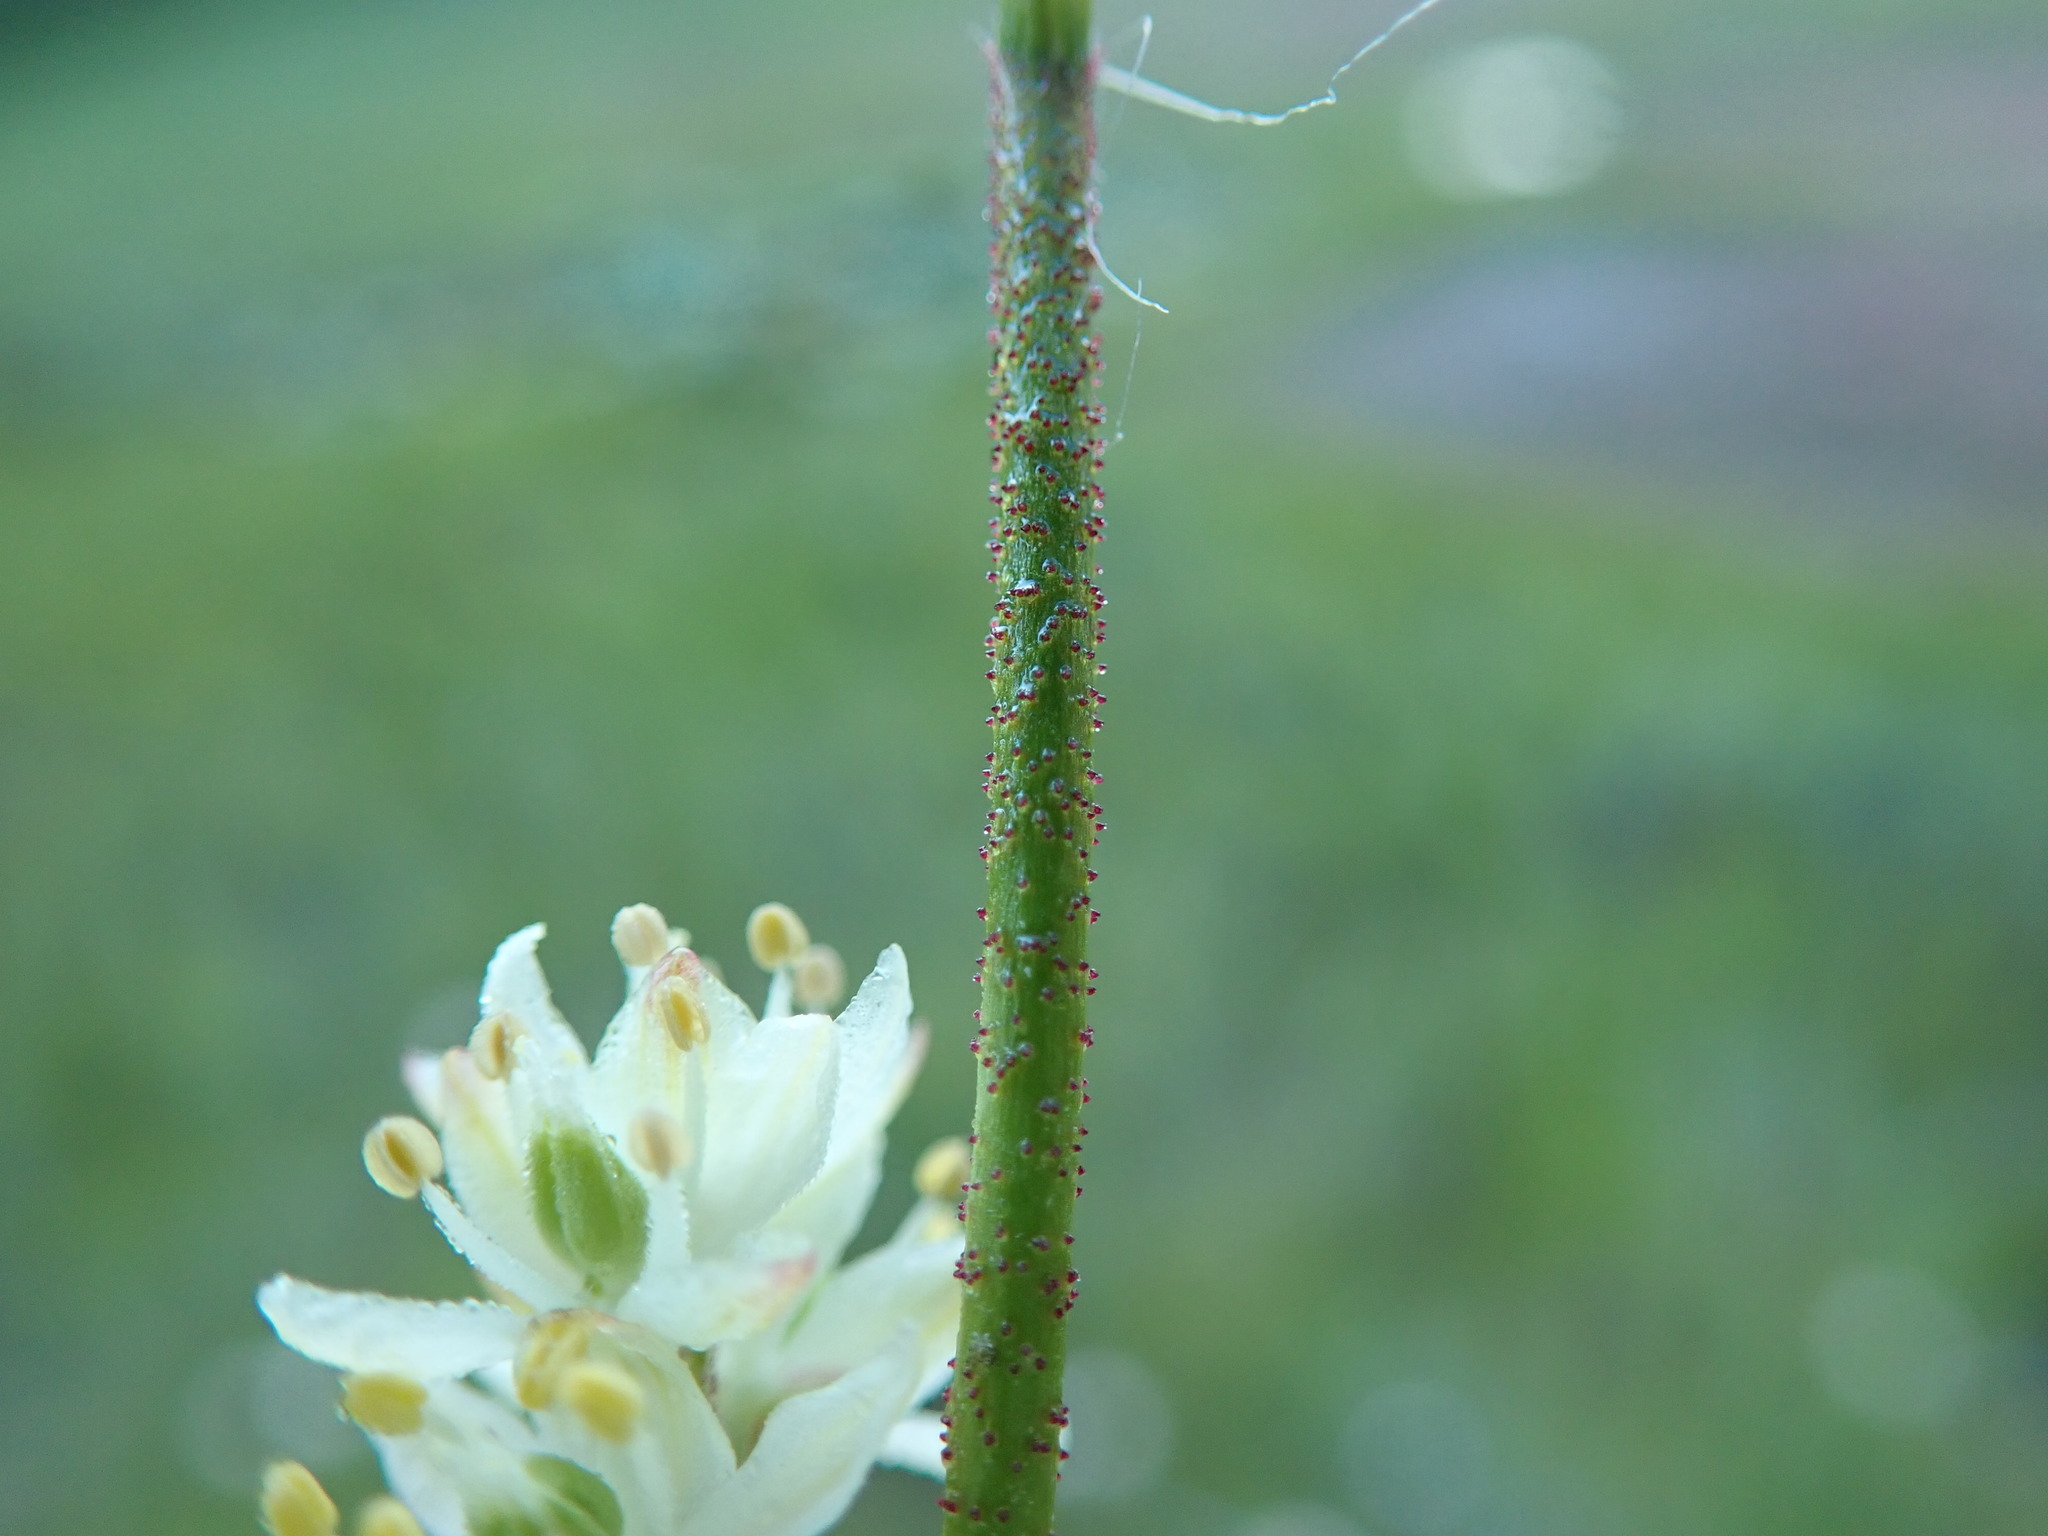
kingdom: Plantae
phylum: Tracheophyta
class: Liliopsida
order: Alismatales
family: Tofieldiaceae
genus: Triantha
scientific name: Triantha glutinosa
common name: Glutinous tofieldia
